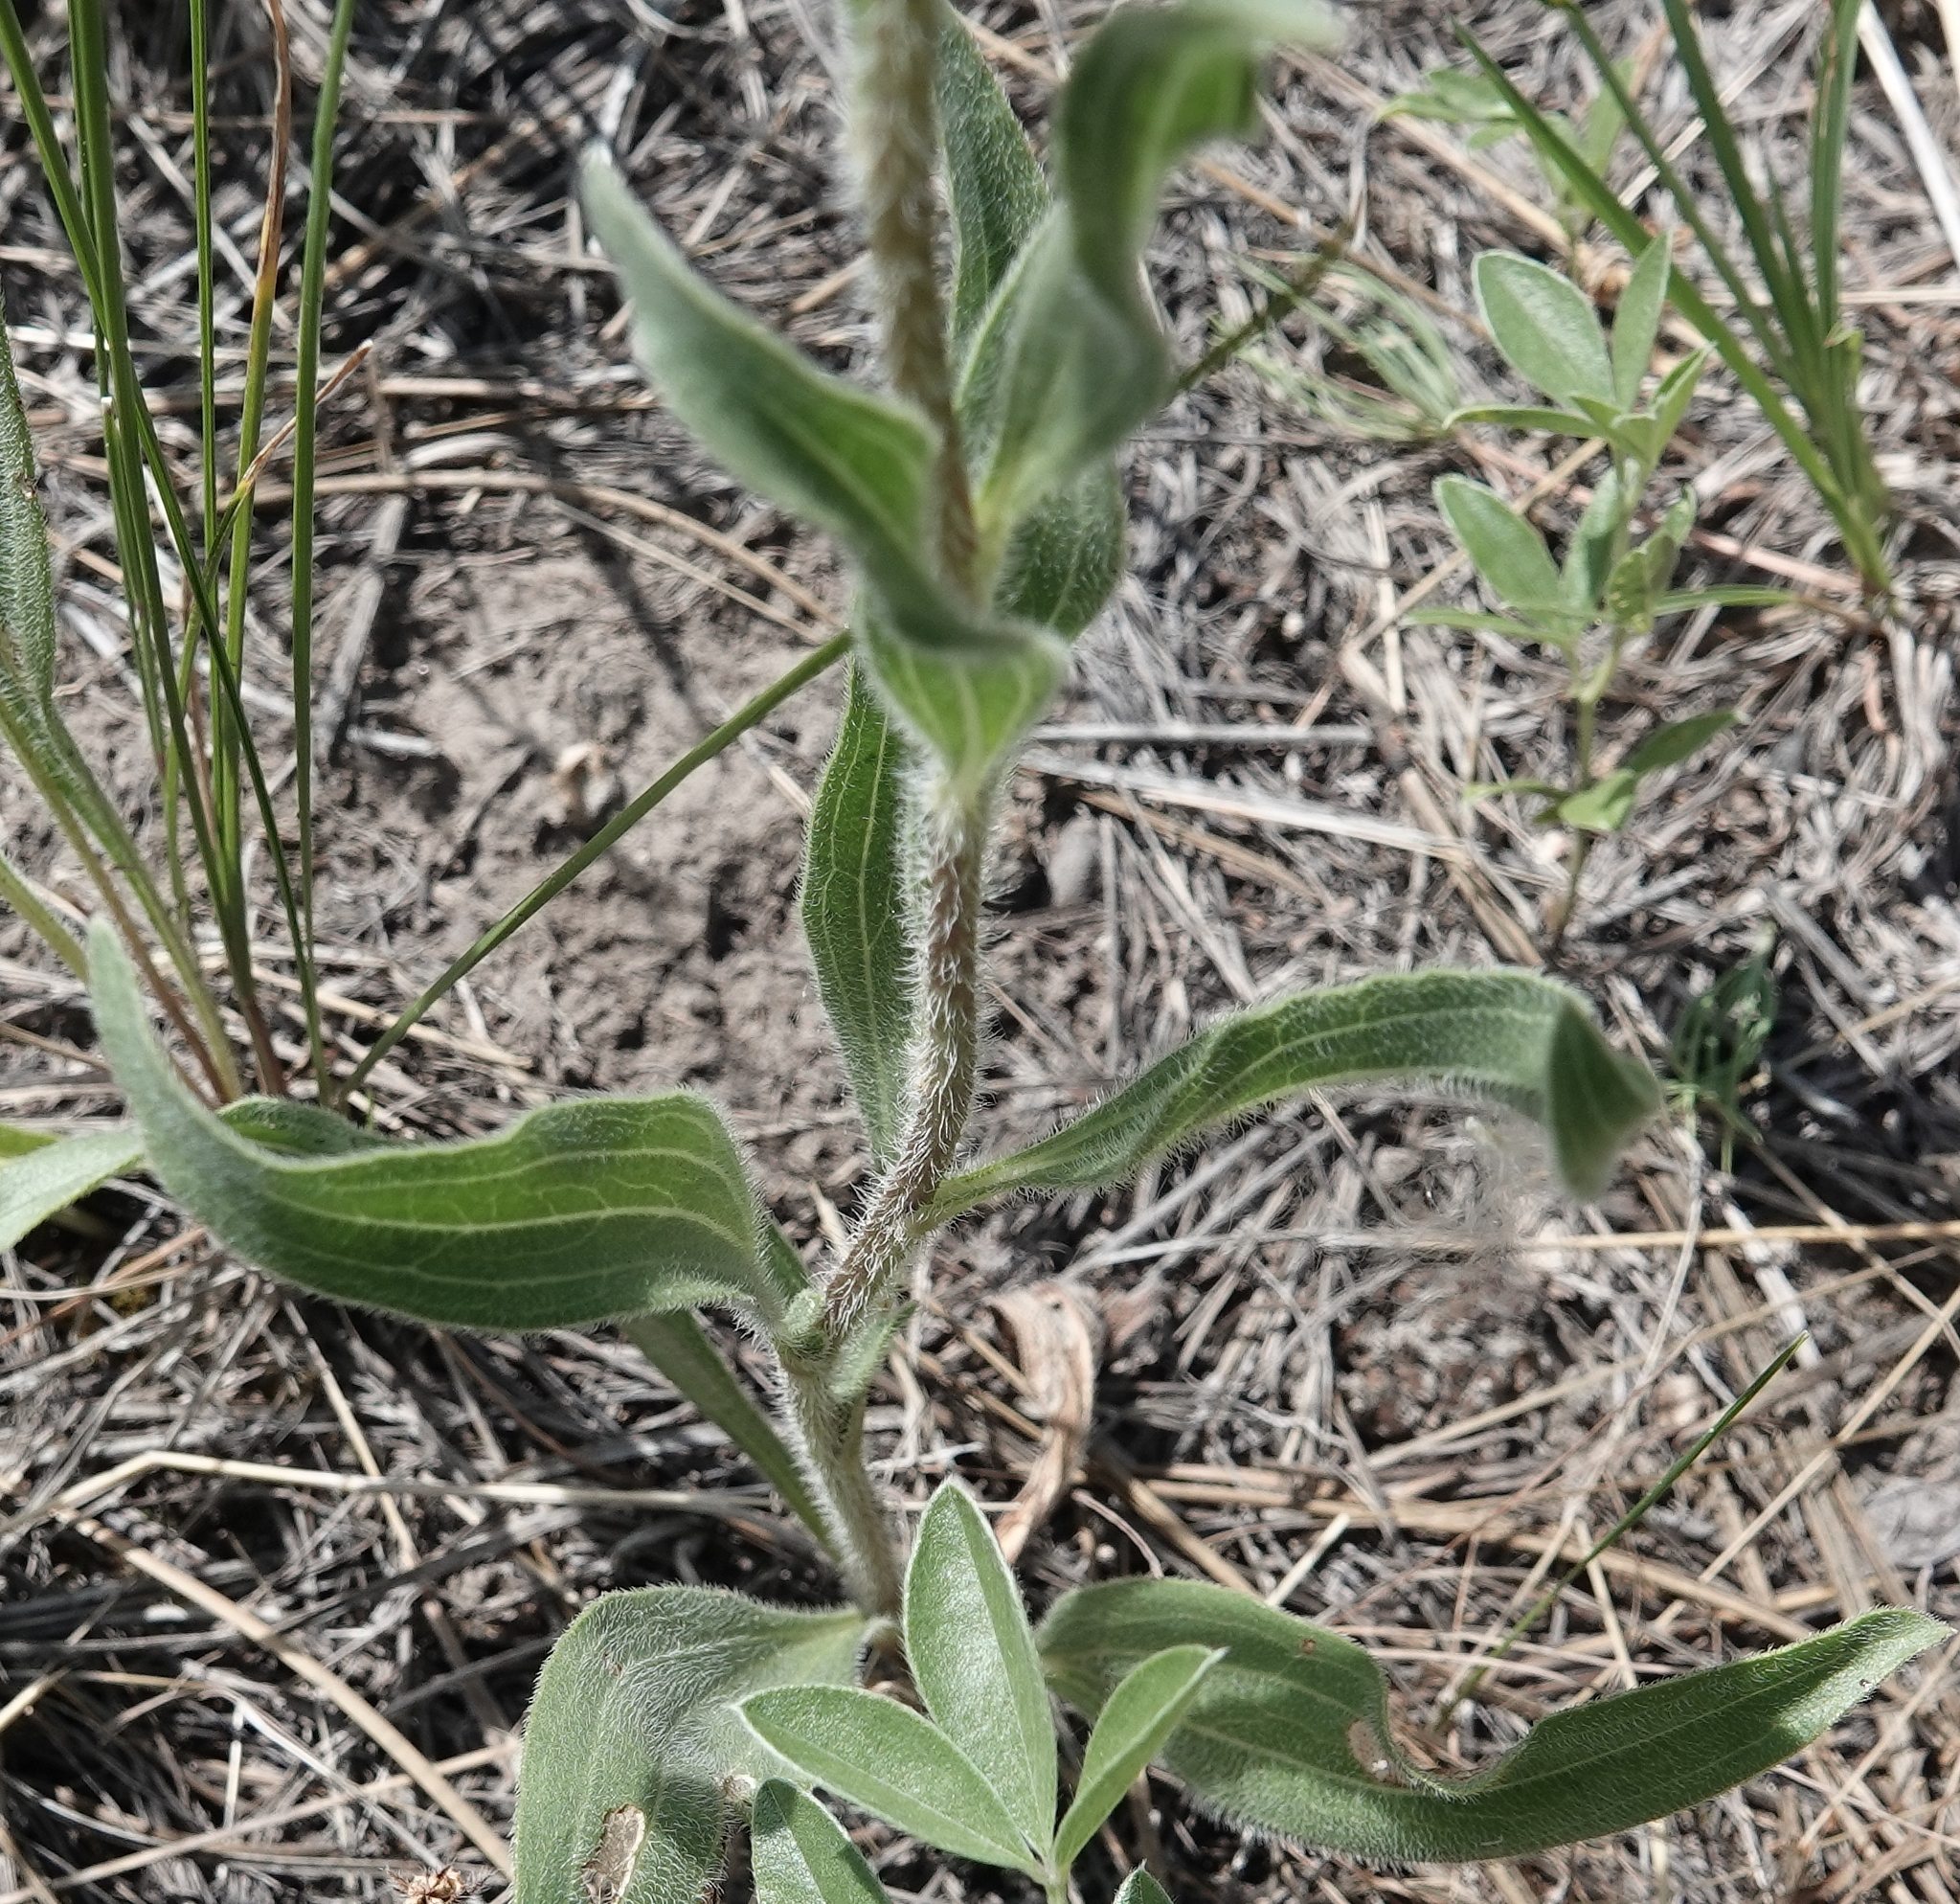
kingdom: Plantae
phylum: Tracheophyta
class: Magnoliopsida
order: Asterales
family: Asteraceae
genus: Echinacea
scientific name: Echinacea angustifolia
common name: Black-sampson echinacea
